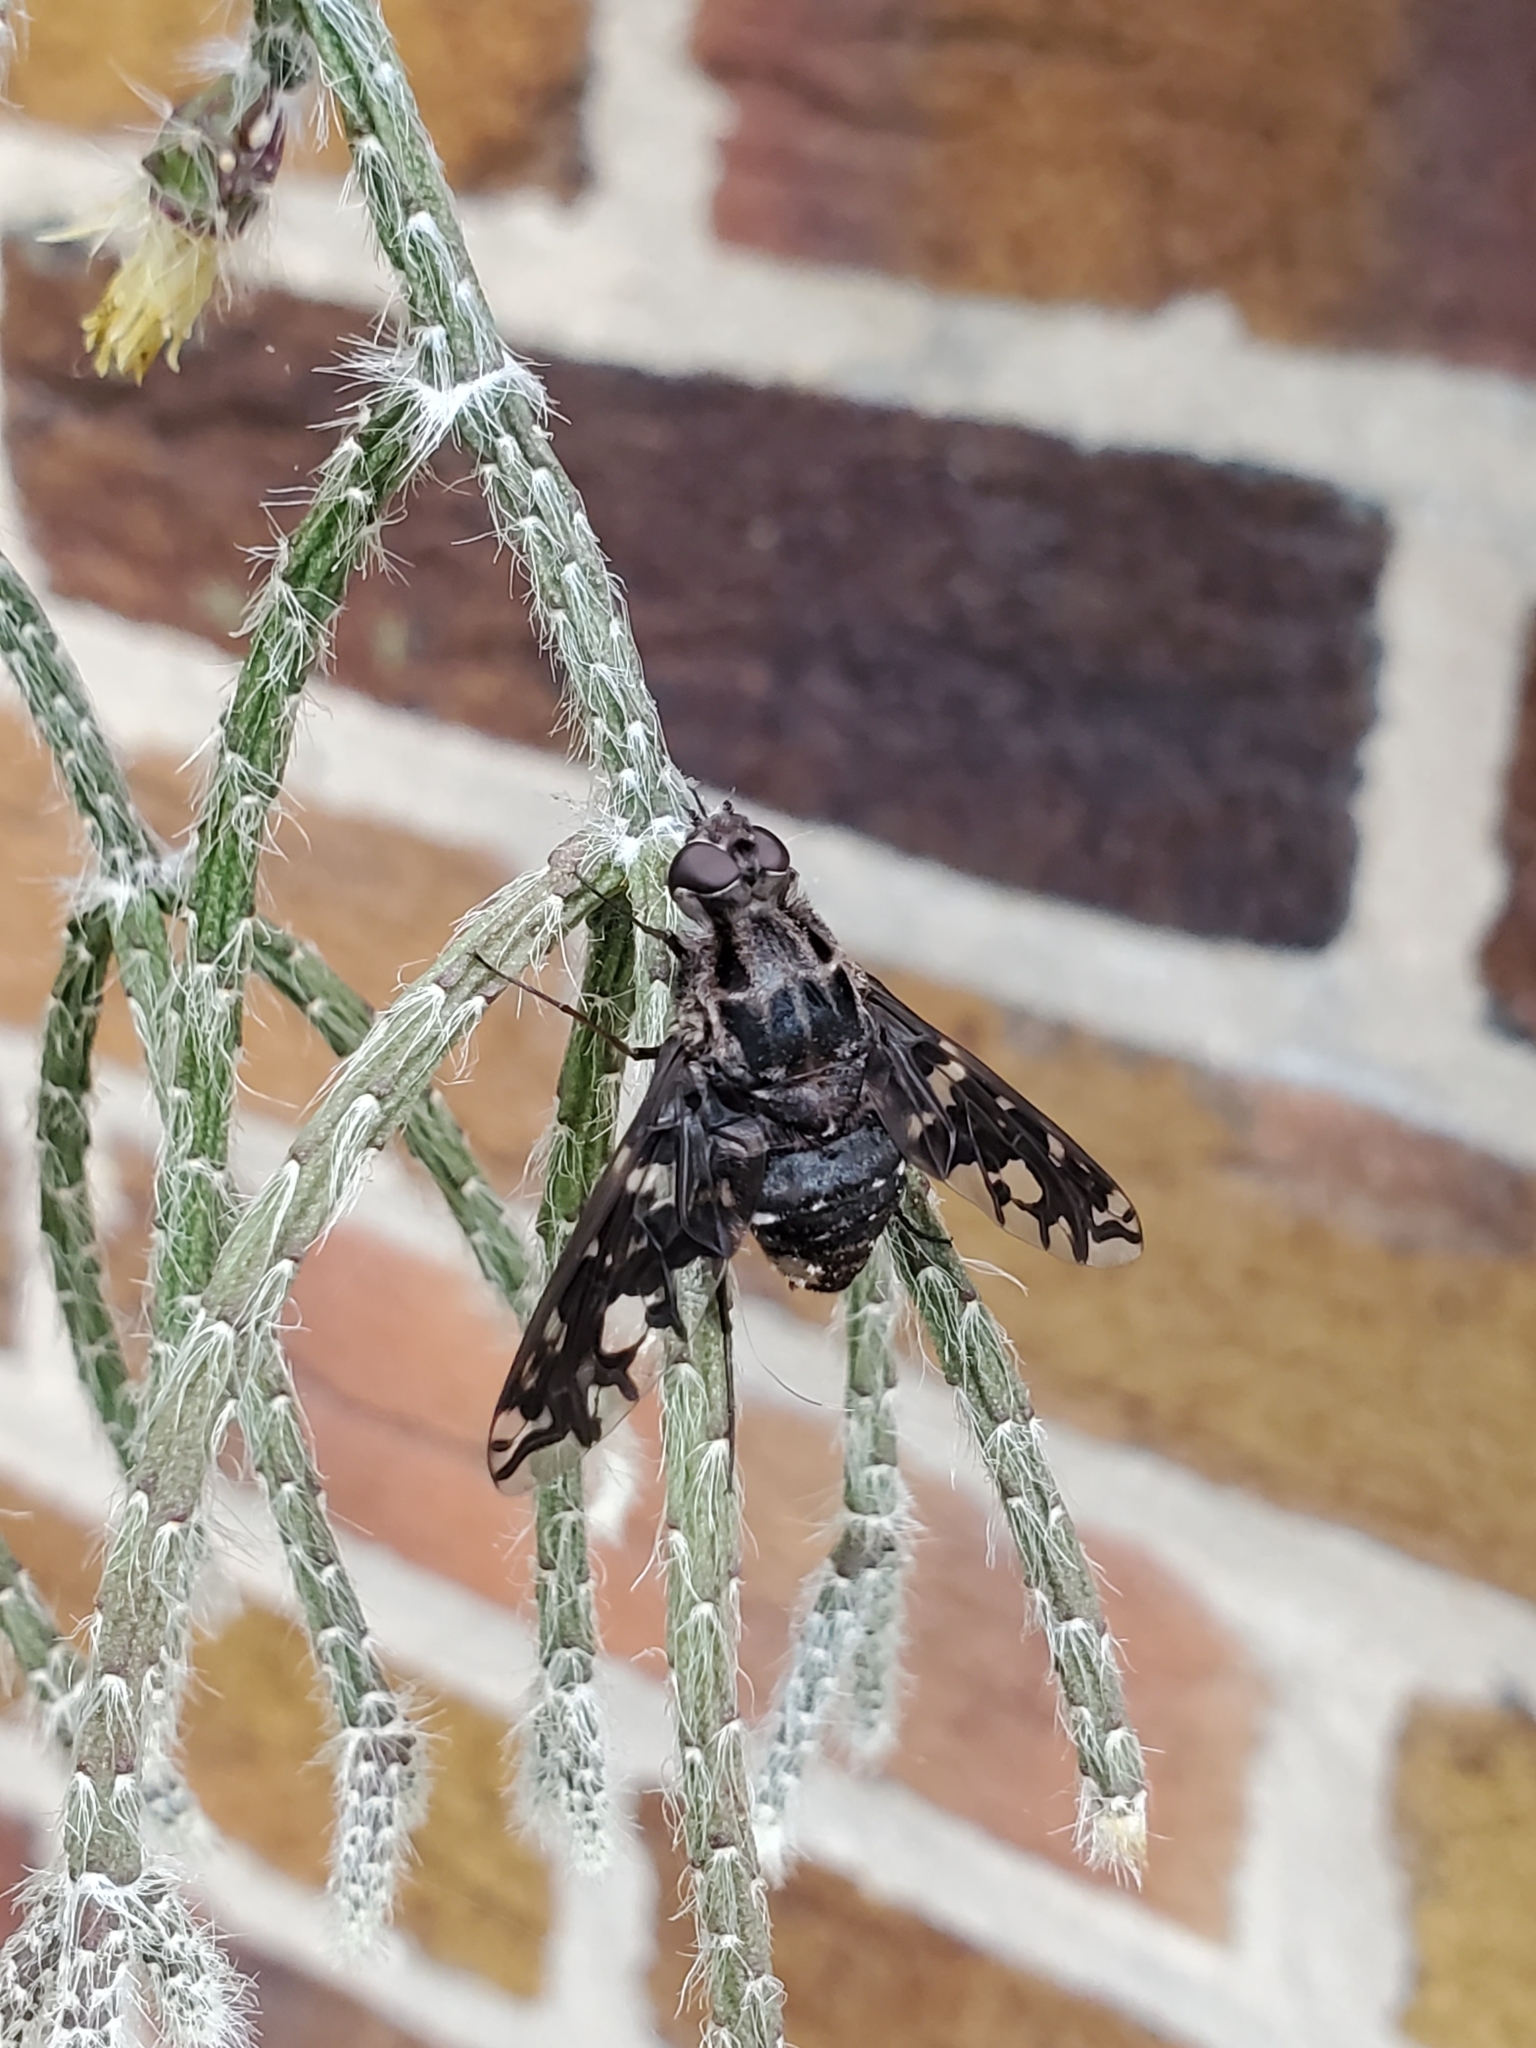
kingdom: Animalia
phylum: Arthropoda
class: Insecta
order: Diptera
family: Bombyliidae
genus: Xenox
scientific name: Xenox tigrinus
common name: Tiger bee fly
